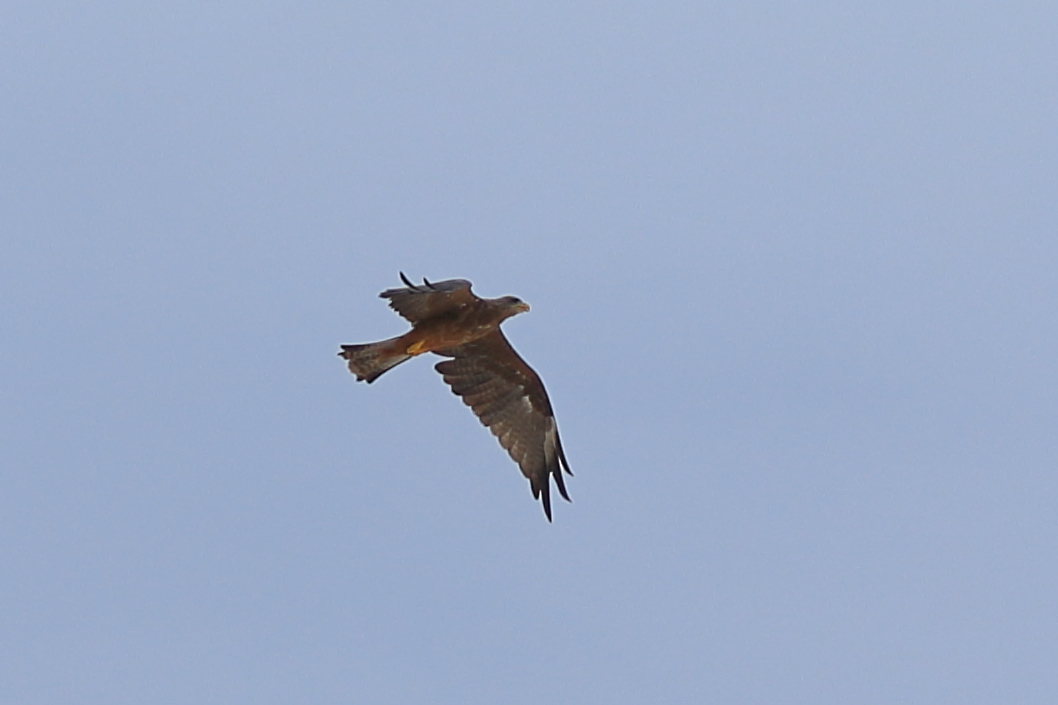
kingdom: Animalia
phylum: Chordata
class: Aves
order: Accipitriformes
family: Accipitridae
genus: Milvus
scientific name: Milvus migrans
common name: Black kite
